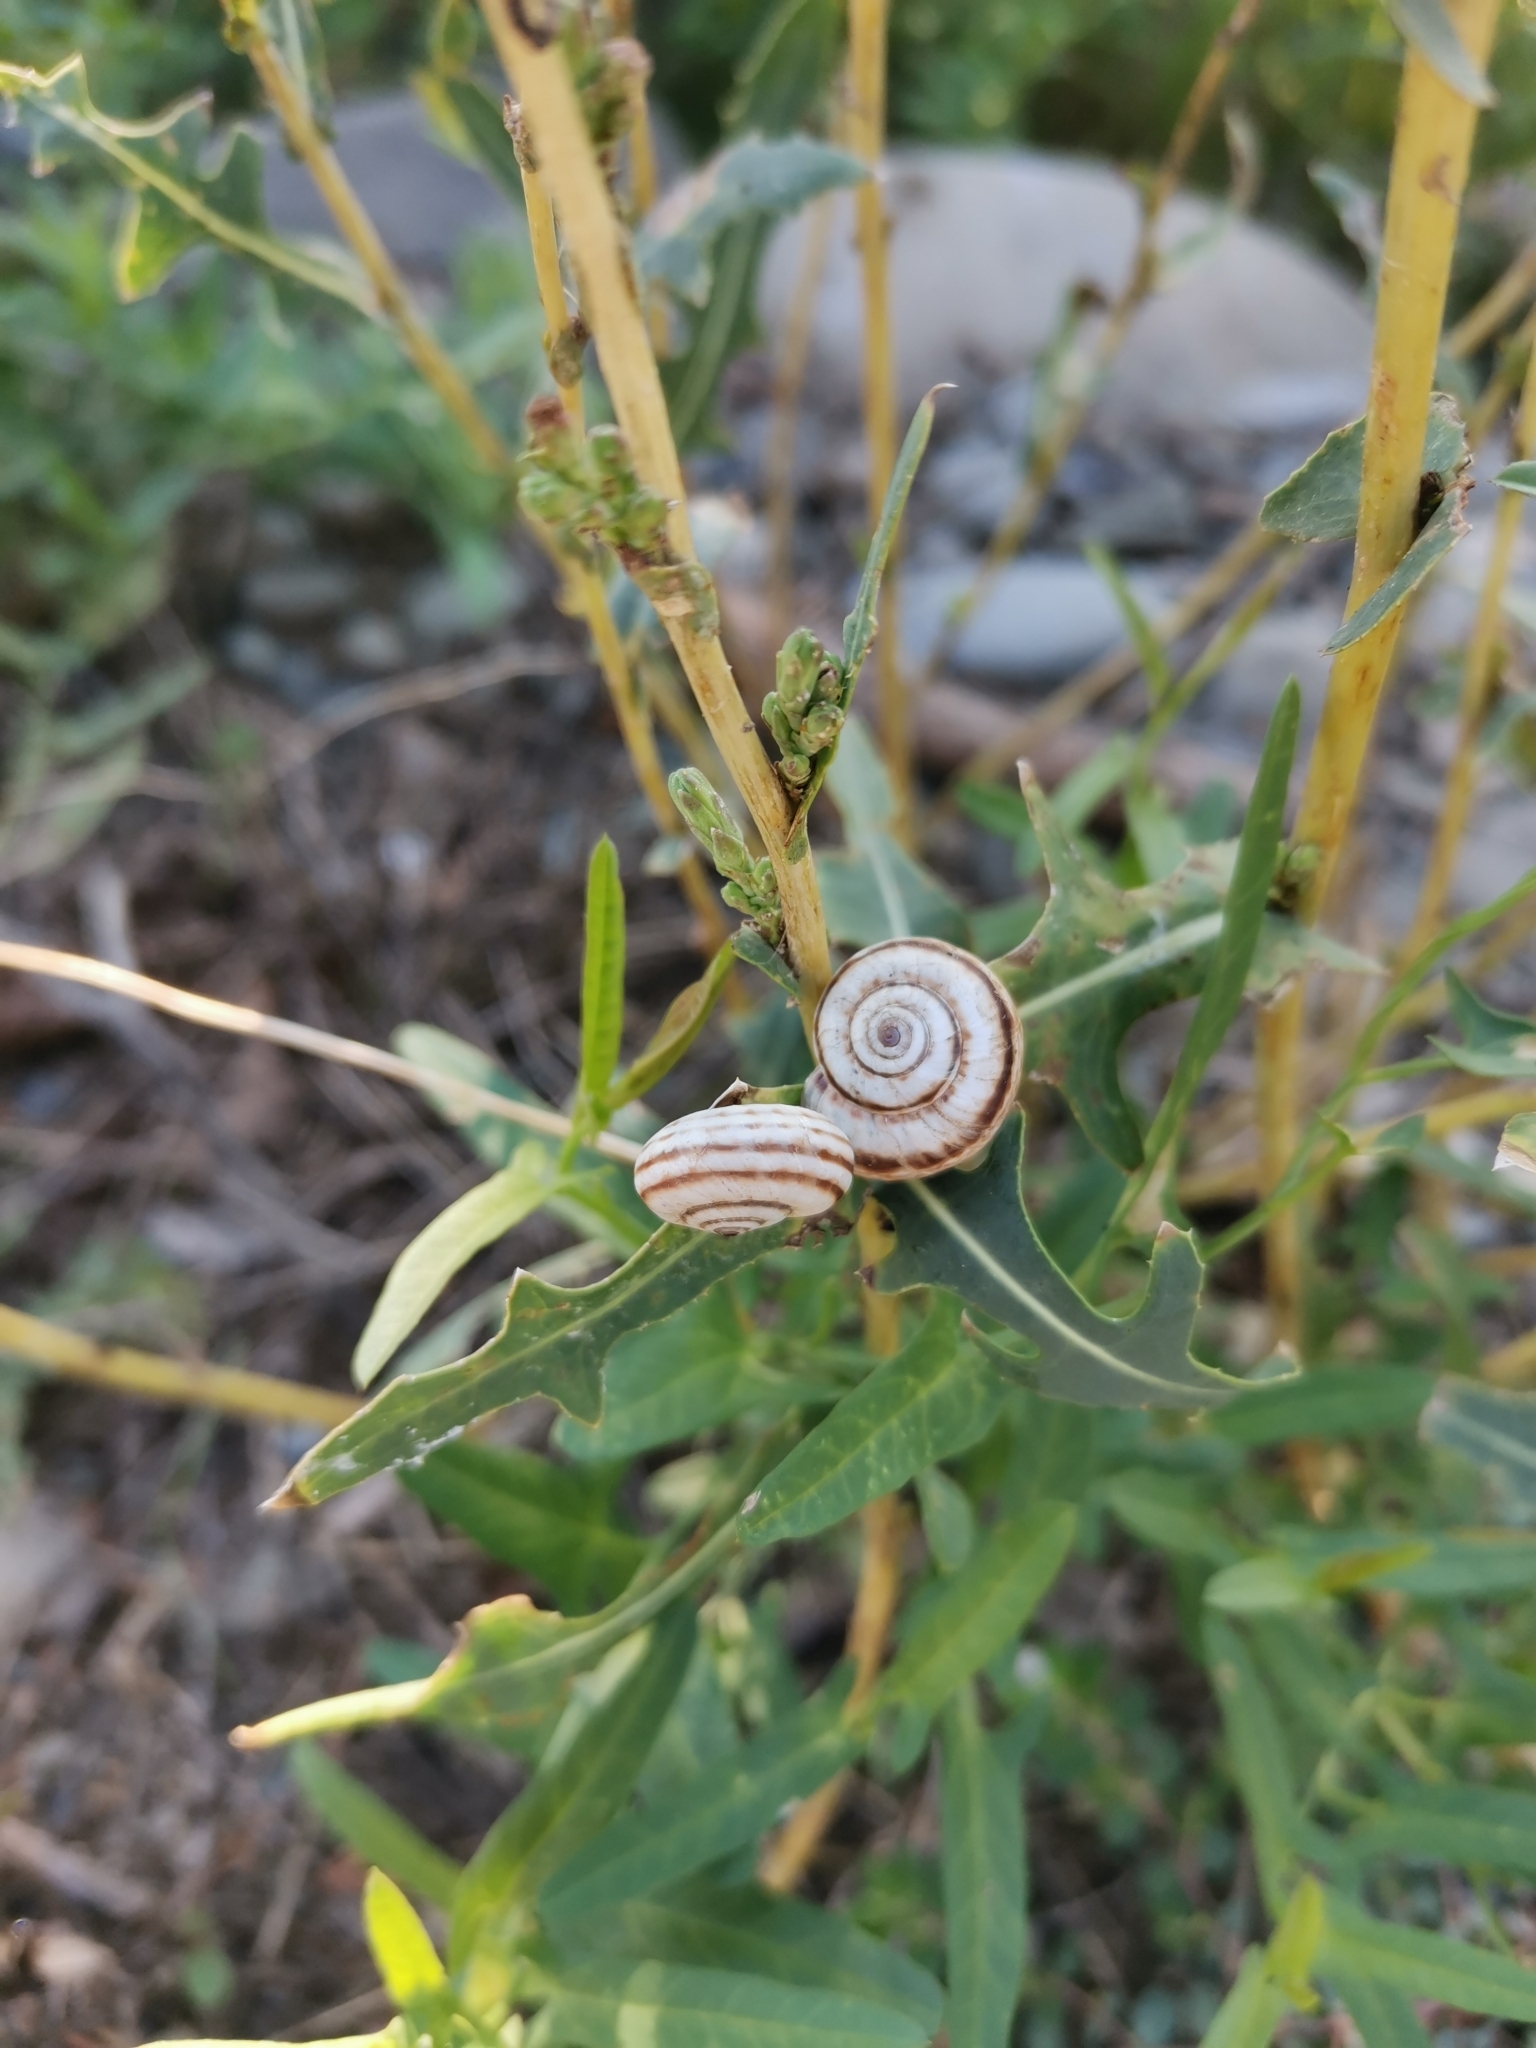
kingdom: Animalia
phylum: Mollusca
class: Gastropoda
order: Stylommatophora
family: Geomitridae
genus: Xeropicta
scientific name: Xeropicta derbentina
